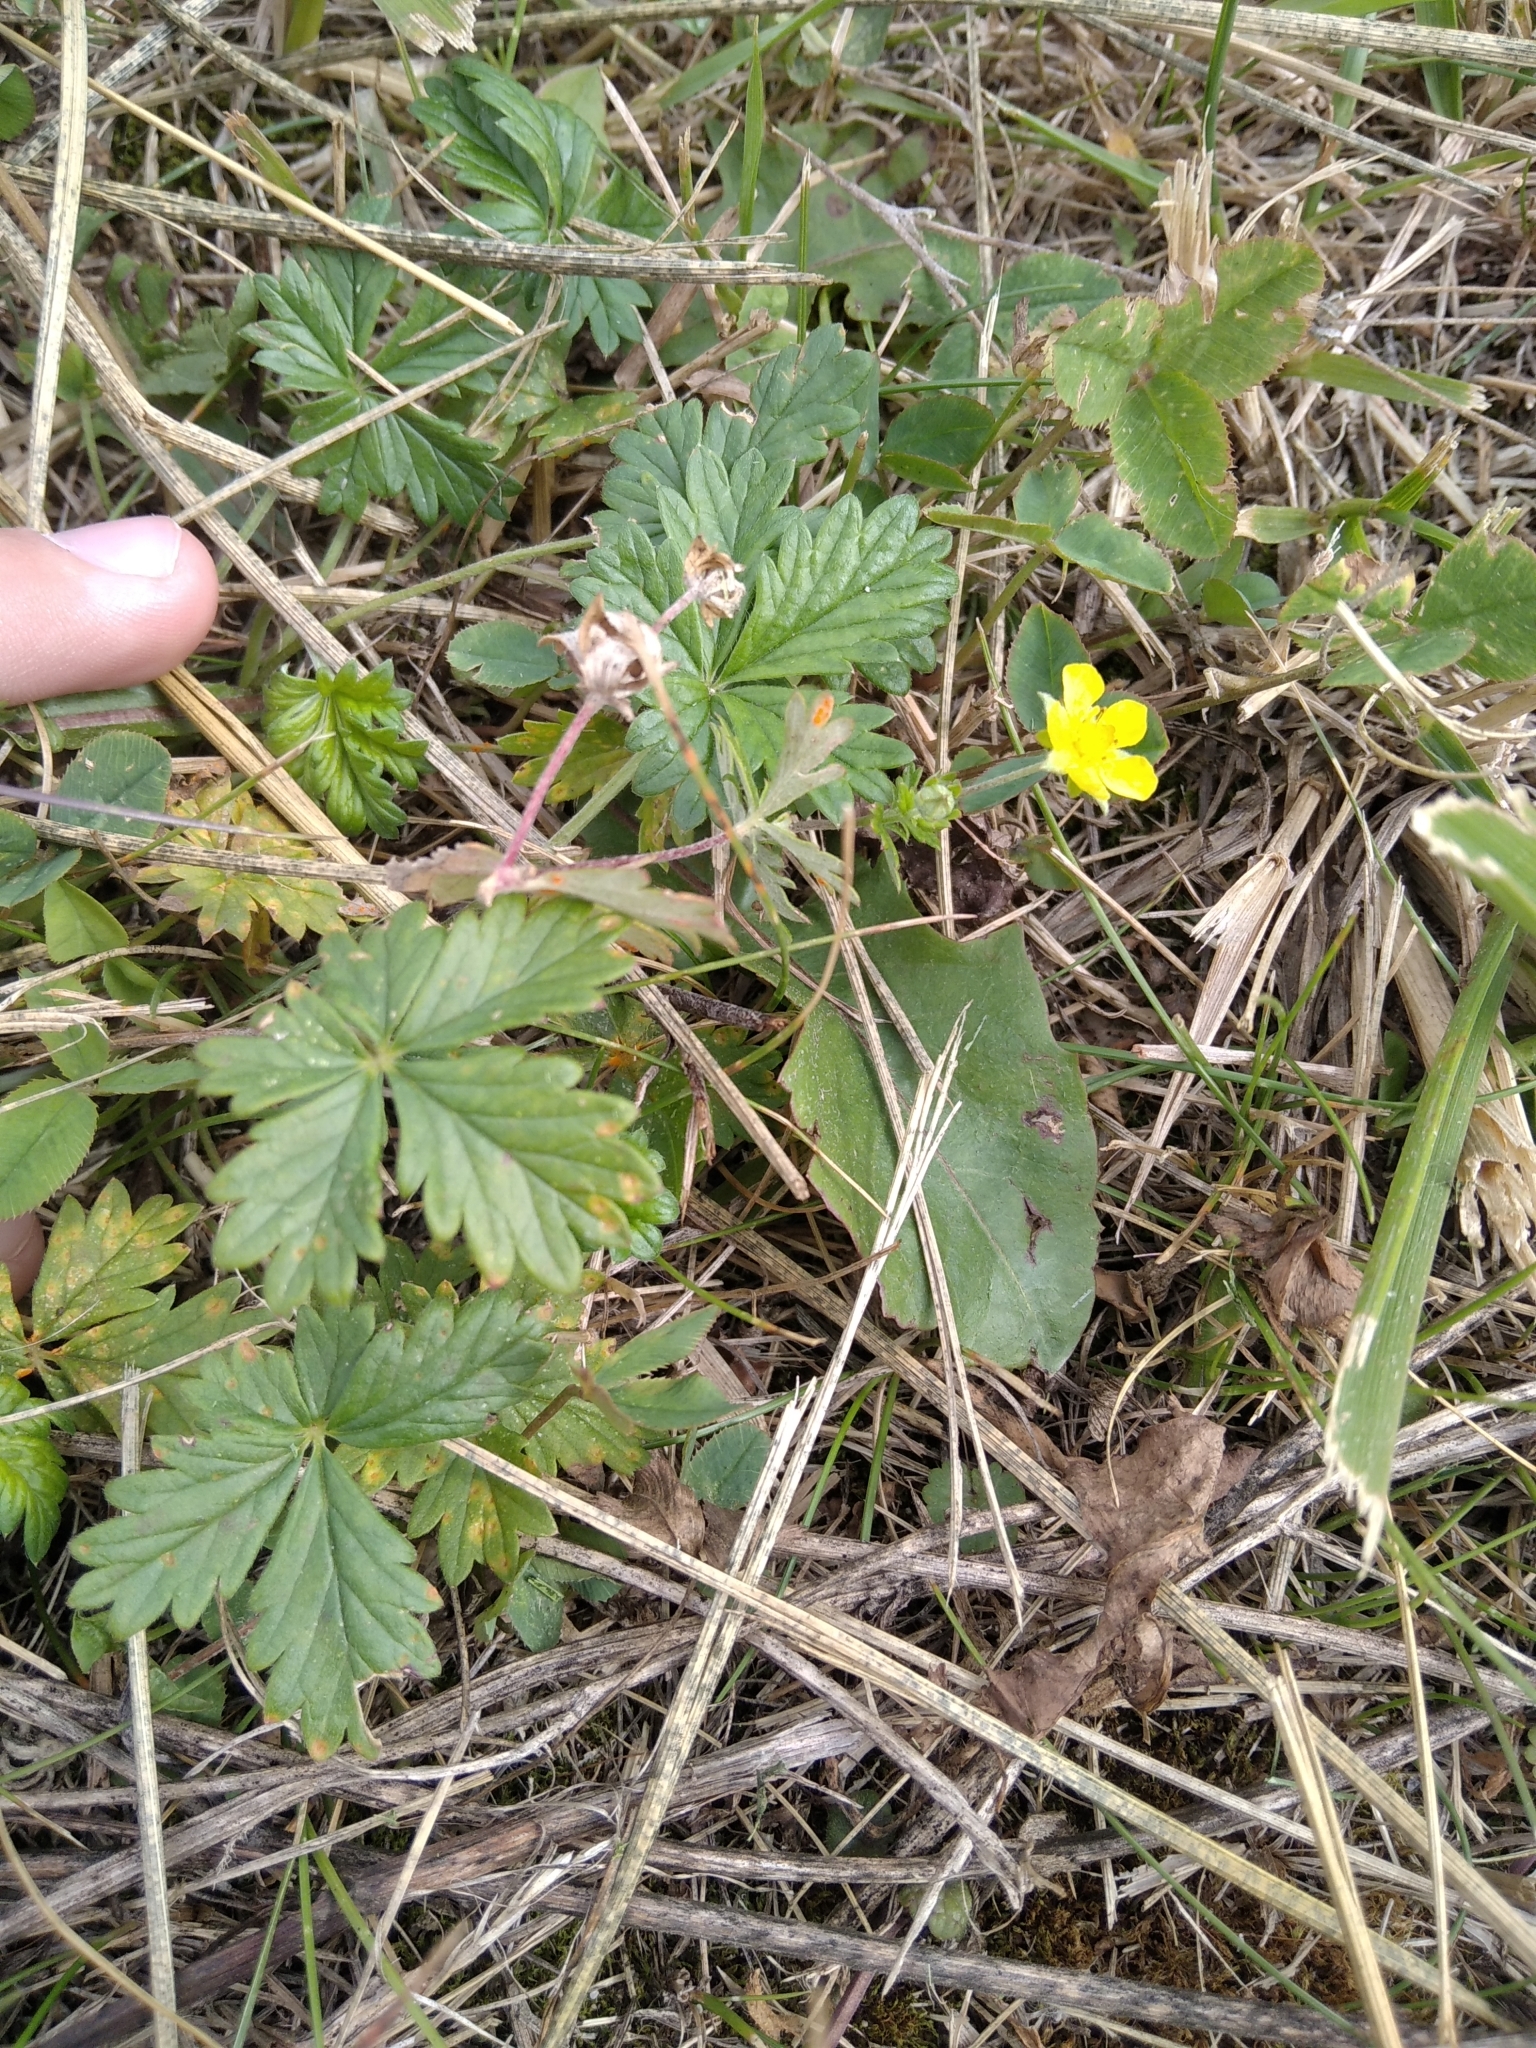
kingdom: Plantae
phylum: Tracheophyta
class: Magnoliopsida
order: Rosales
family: Rosaceae
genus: Potentilla
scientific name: Potentilla argentea
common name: Hoary cinquefoil
